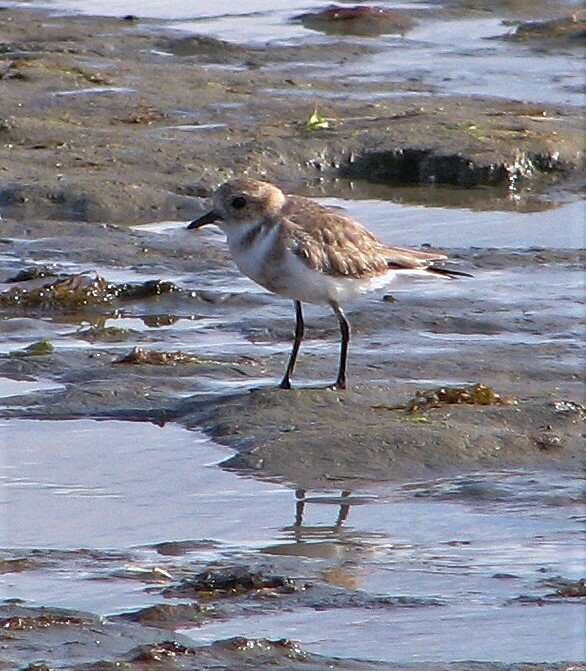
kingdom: Animalia
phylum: Chordata
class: Aves
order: Charadriiformes
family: Charadriidae
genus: Anarhynchus
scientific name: Anarhynchus
